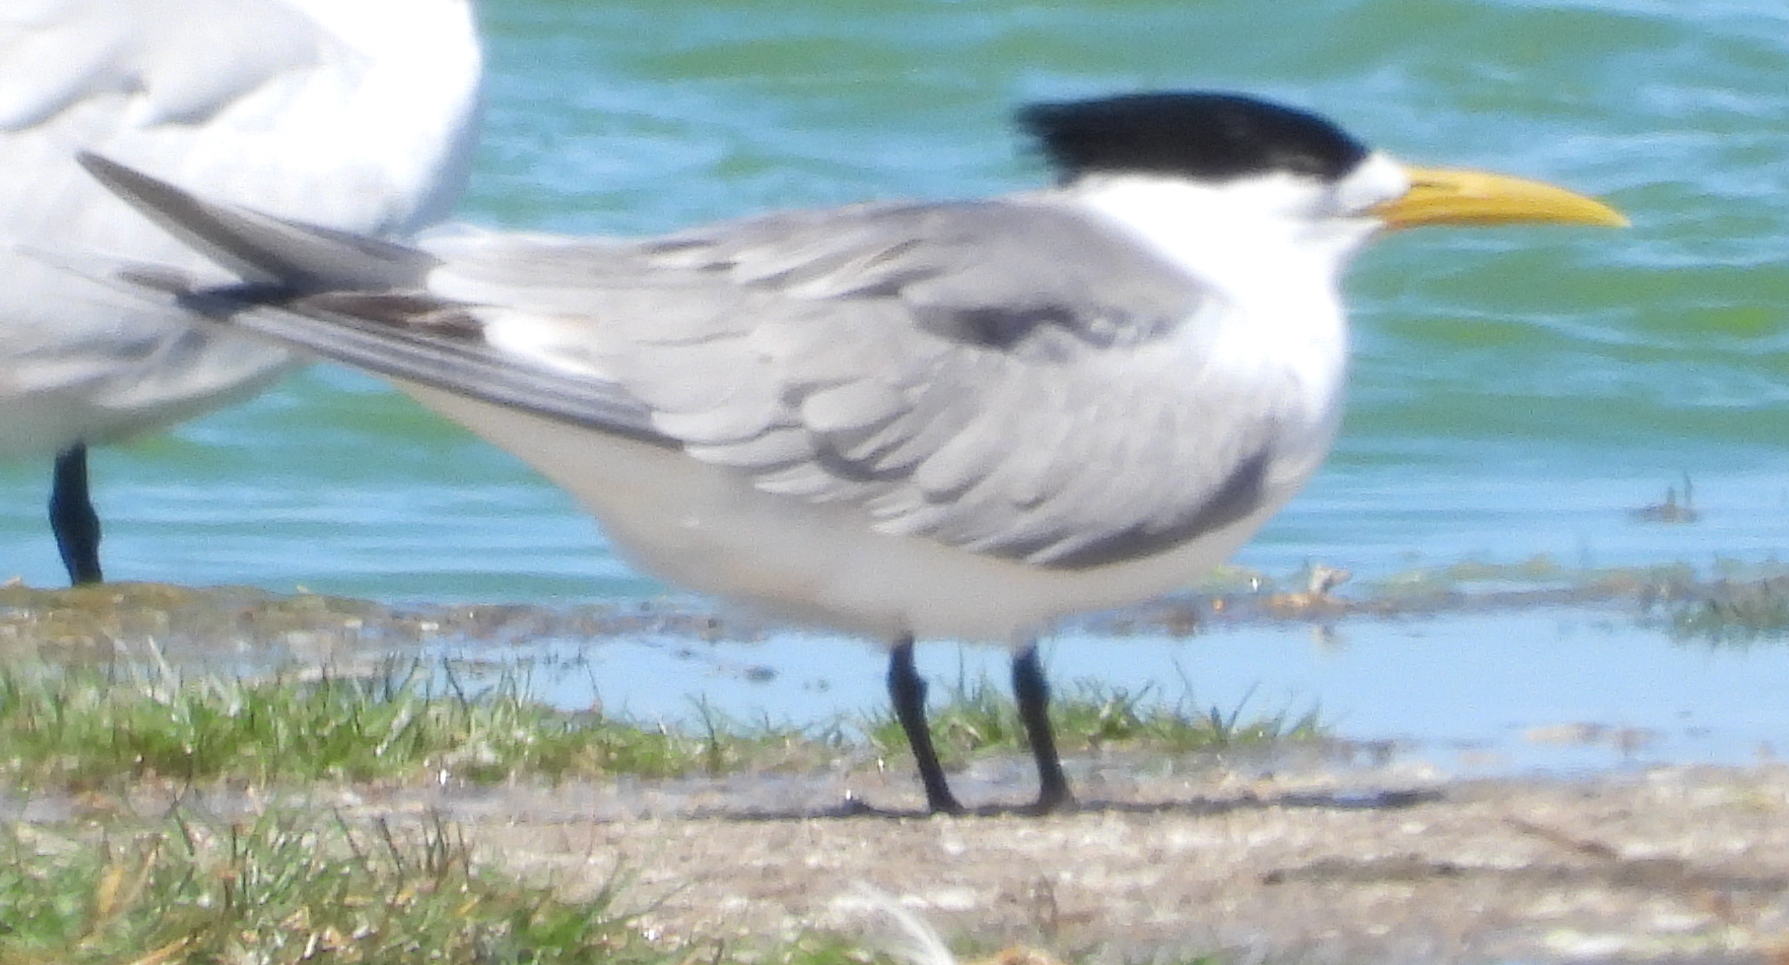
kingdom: Animalia
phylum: Chordata
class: Aves
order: Charadriiformes
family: Laridae
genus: Thalasseus
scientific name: Thalasseus bergii
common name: Greater crested tern
